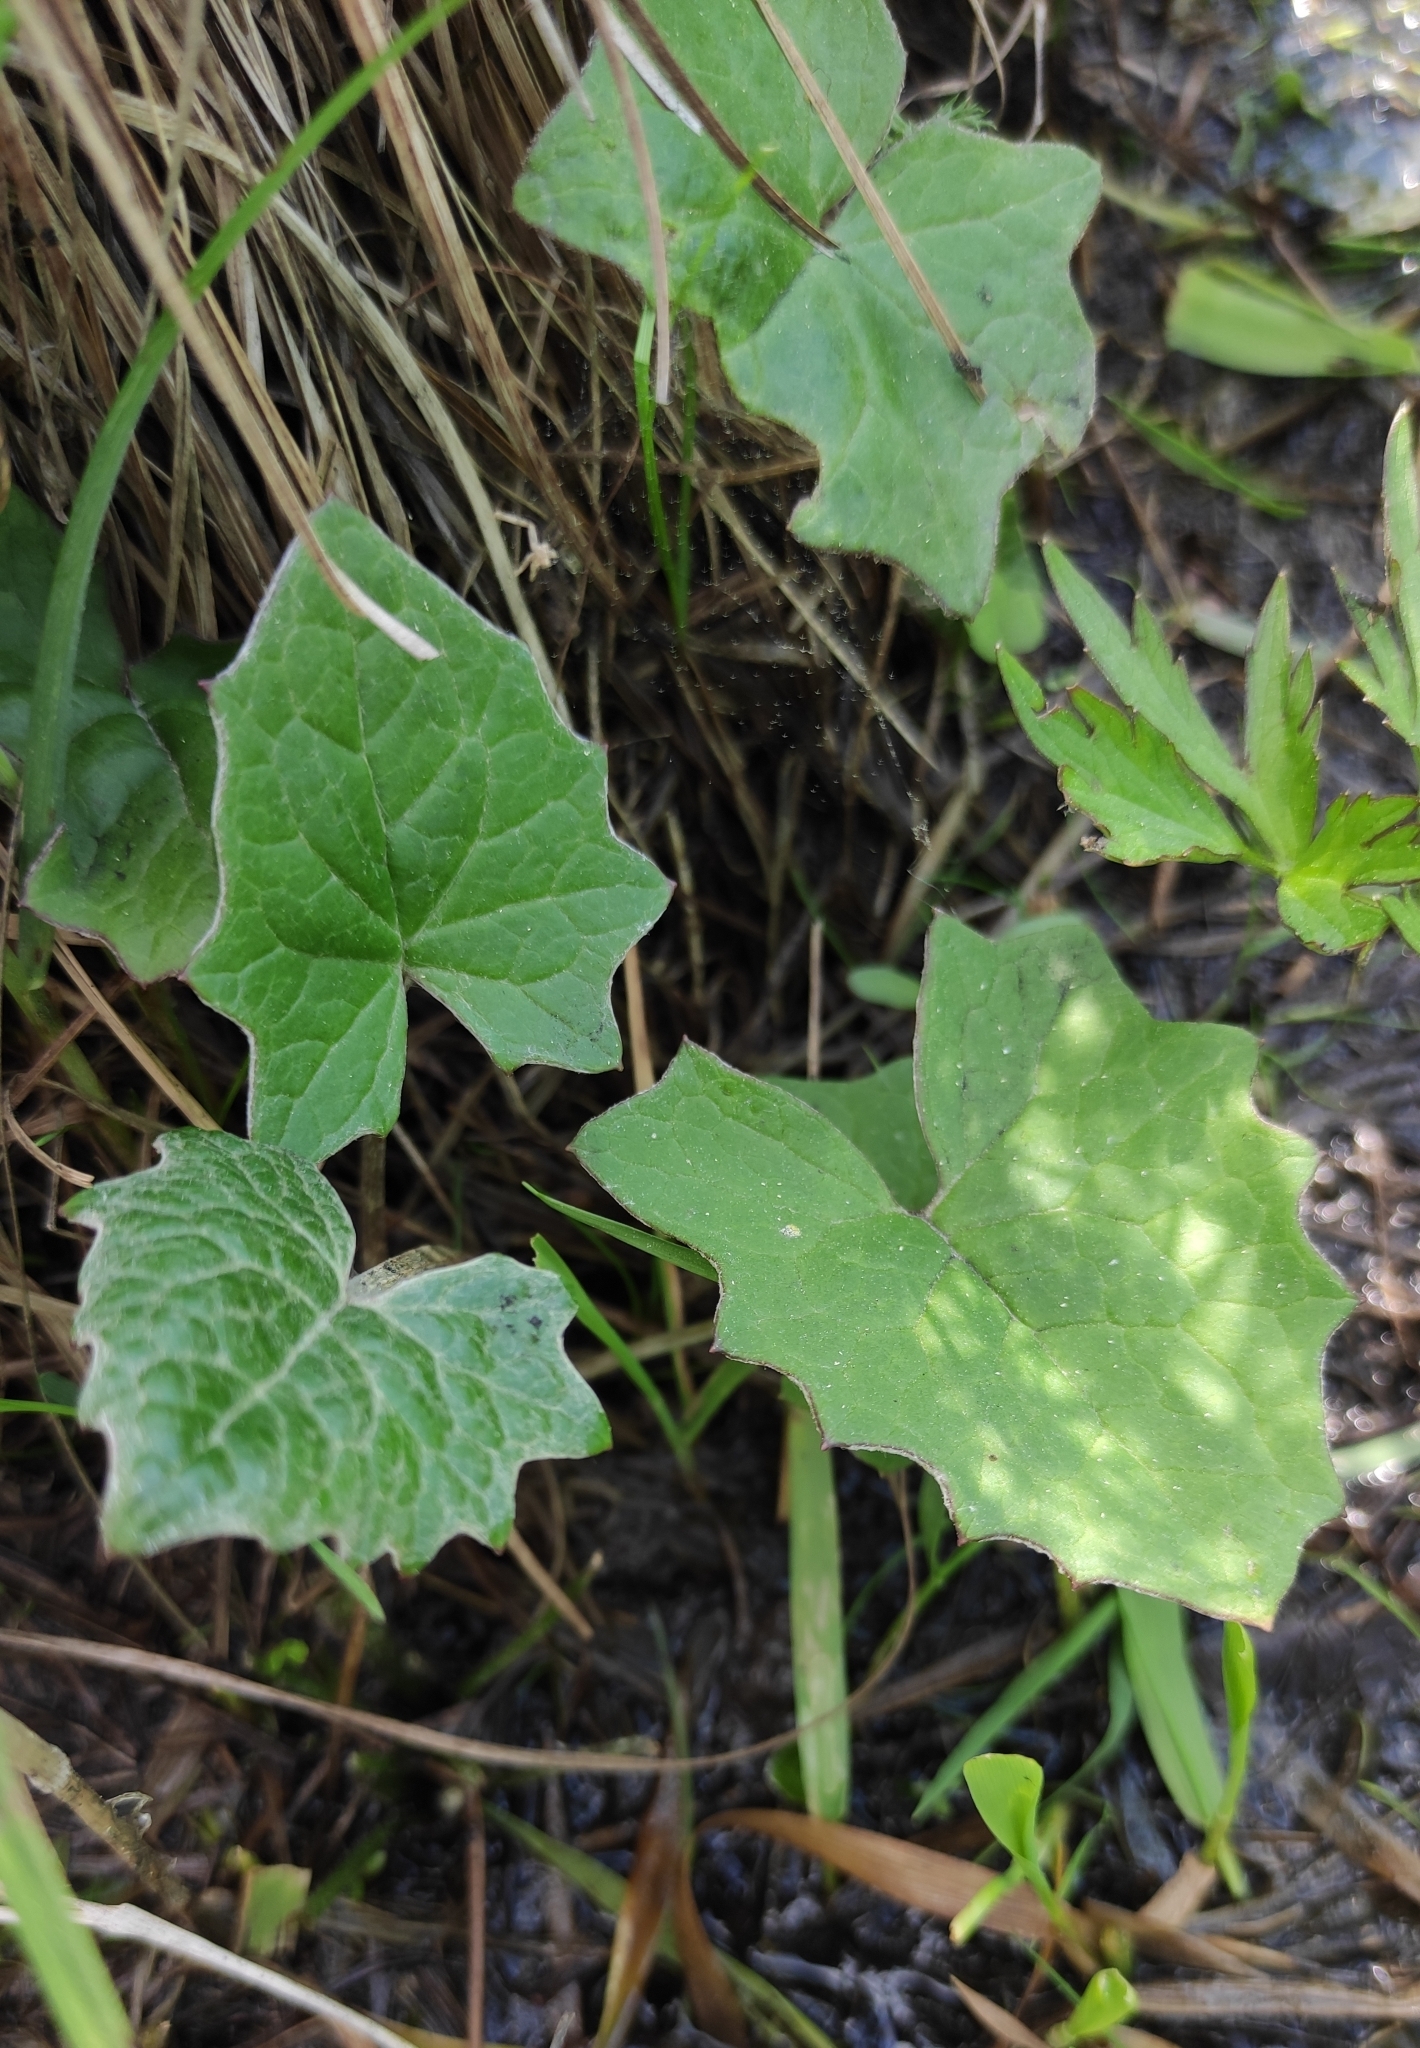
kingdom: Plantae
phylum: Tracheophyta
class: Magnoliopsida
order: Asterales
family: Asteraceae
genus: Petasites
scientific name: Petasites frigidus
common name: Arctic butterbur
